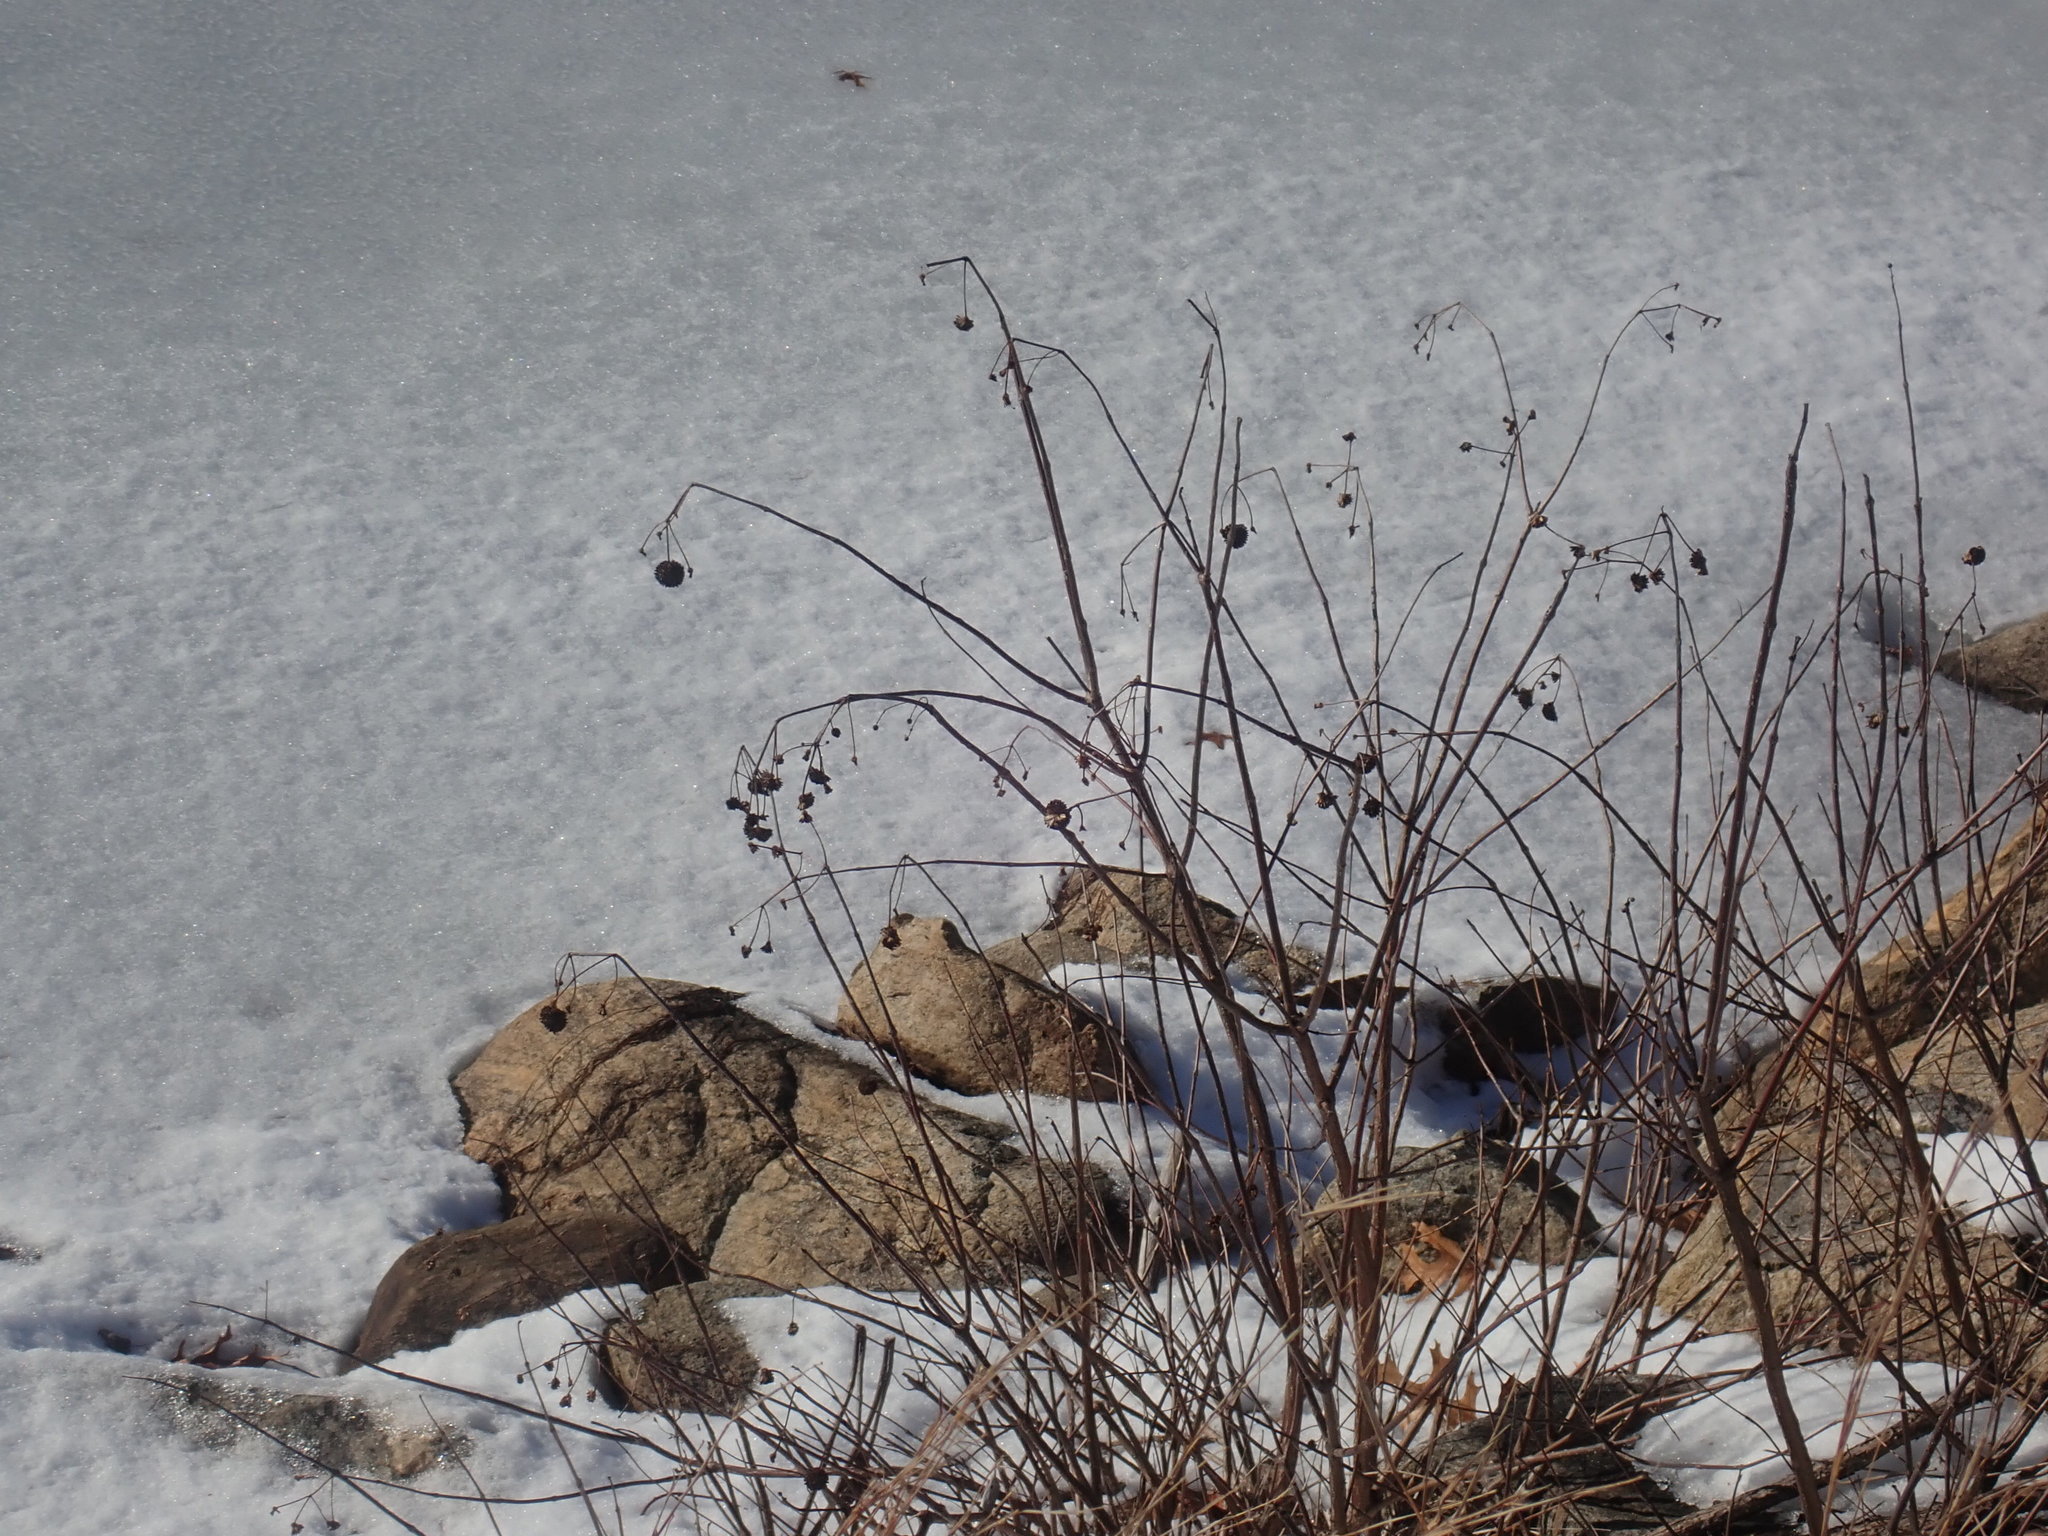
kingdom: Plantae
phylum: Tracheophyta
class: Magnoliopsida
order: Gentianales
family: Rubiaceae
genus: Cephalanthus
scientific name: Cephalanthus occidentalis
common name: Button-willow
